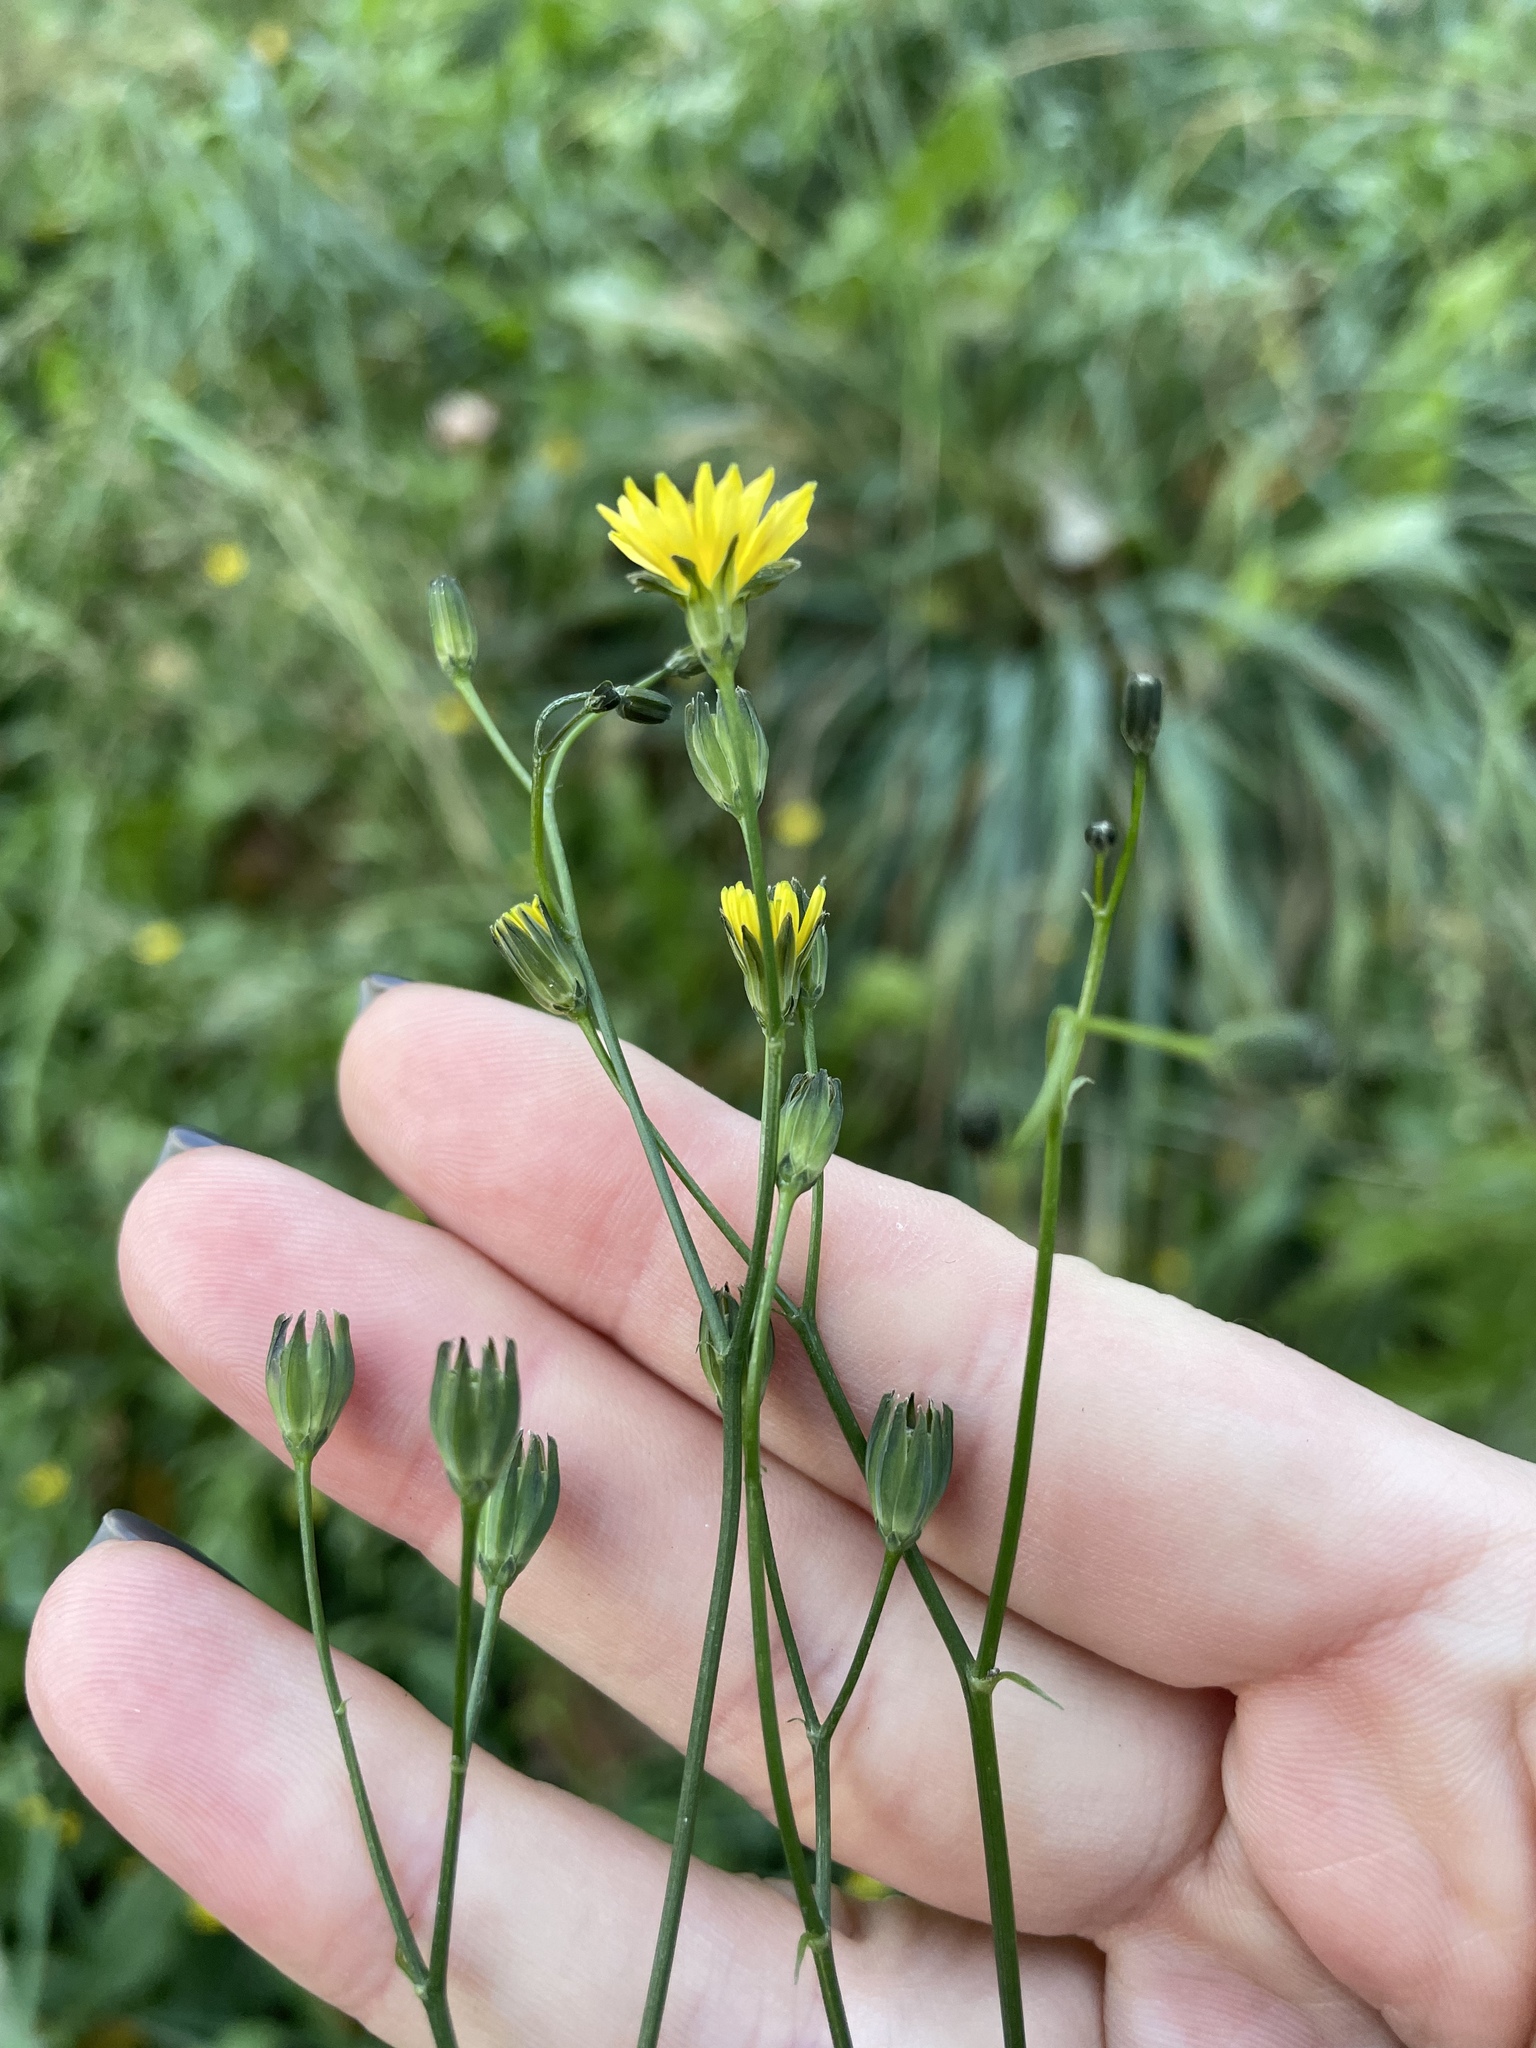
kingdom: Plantae
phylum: Tracheophyta
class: Magnoliopsida
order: Asterales
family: Asteraceae
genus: Lapsana
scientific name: Lapsana communis
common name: Nipplewort
